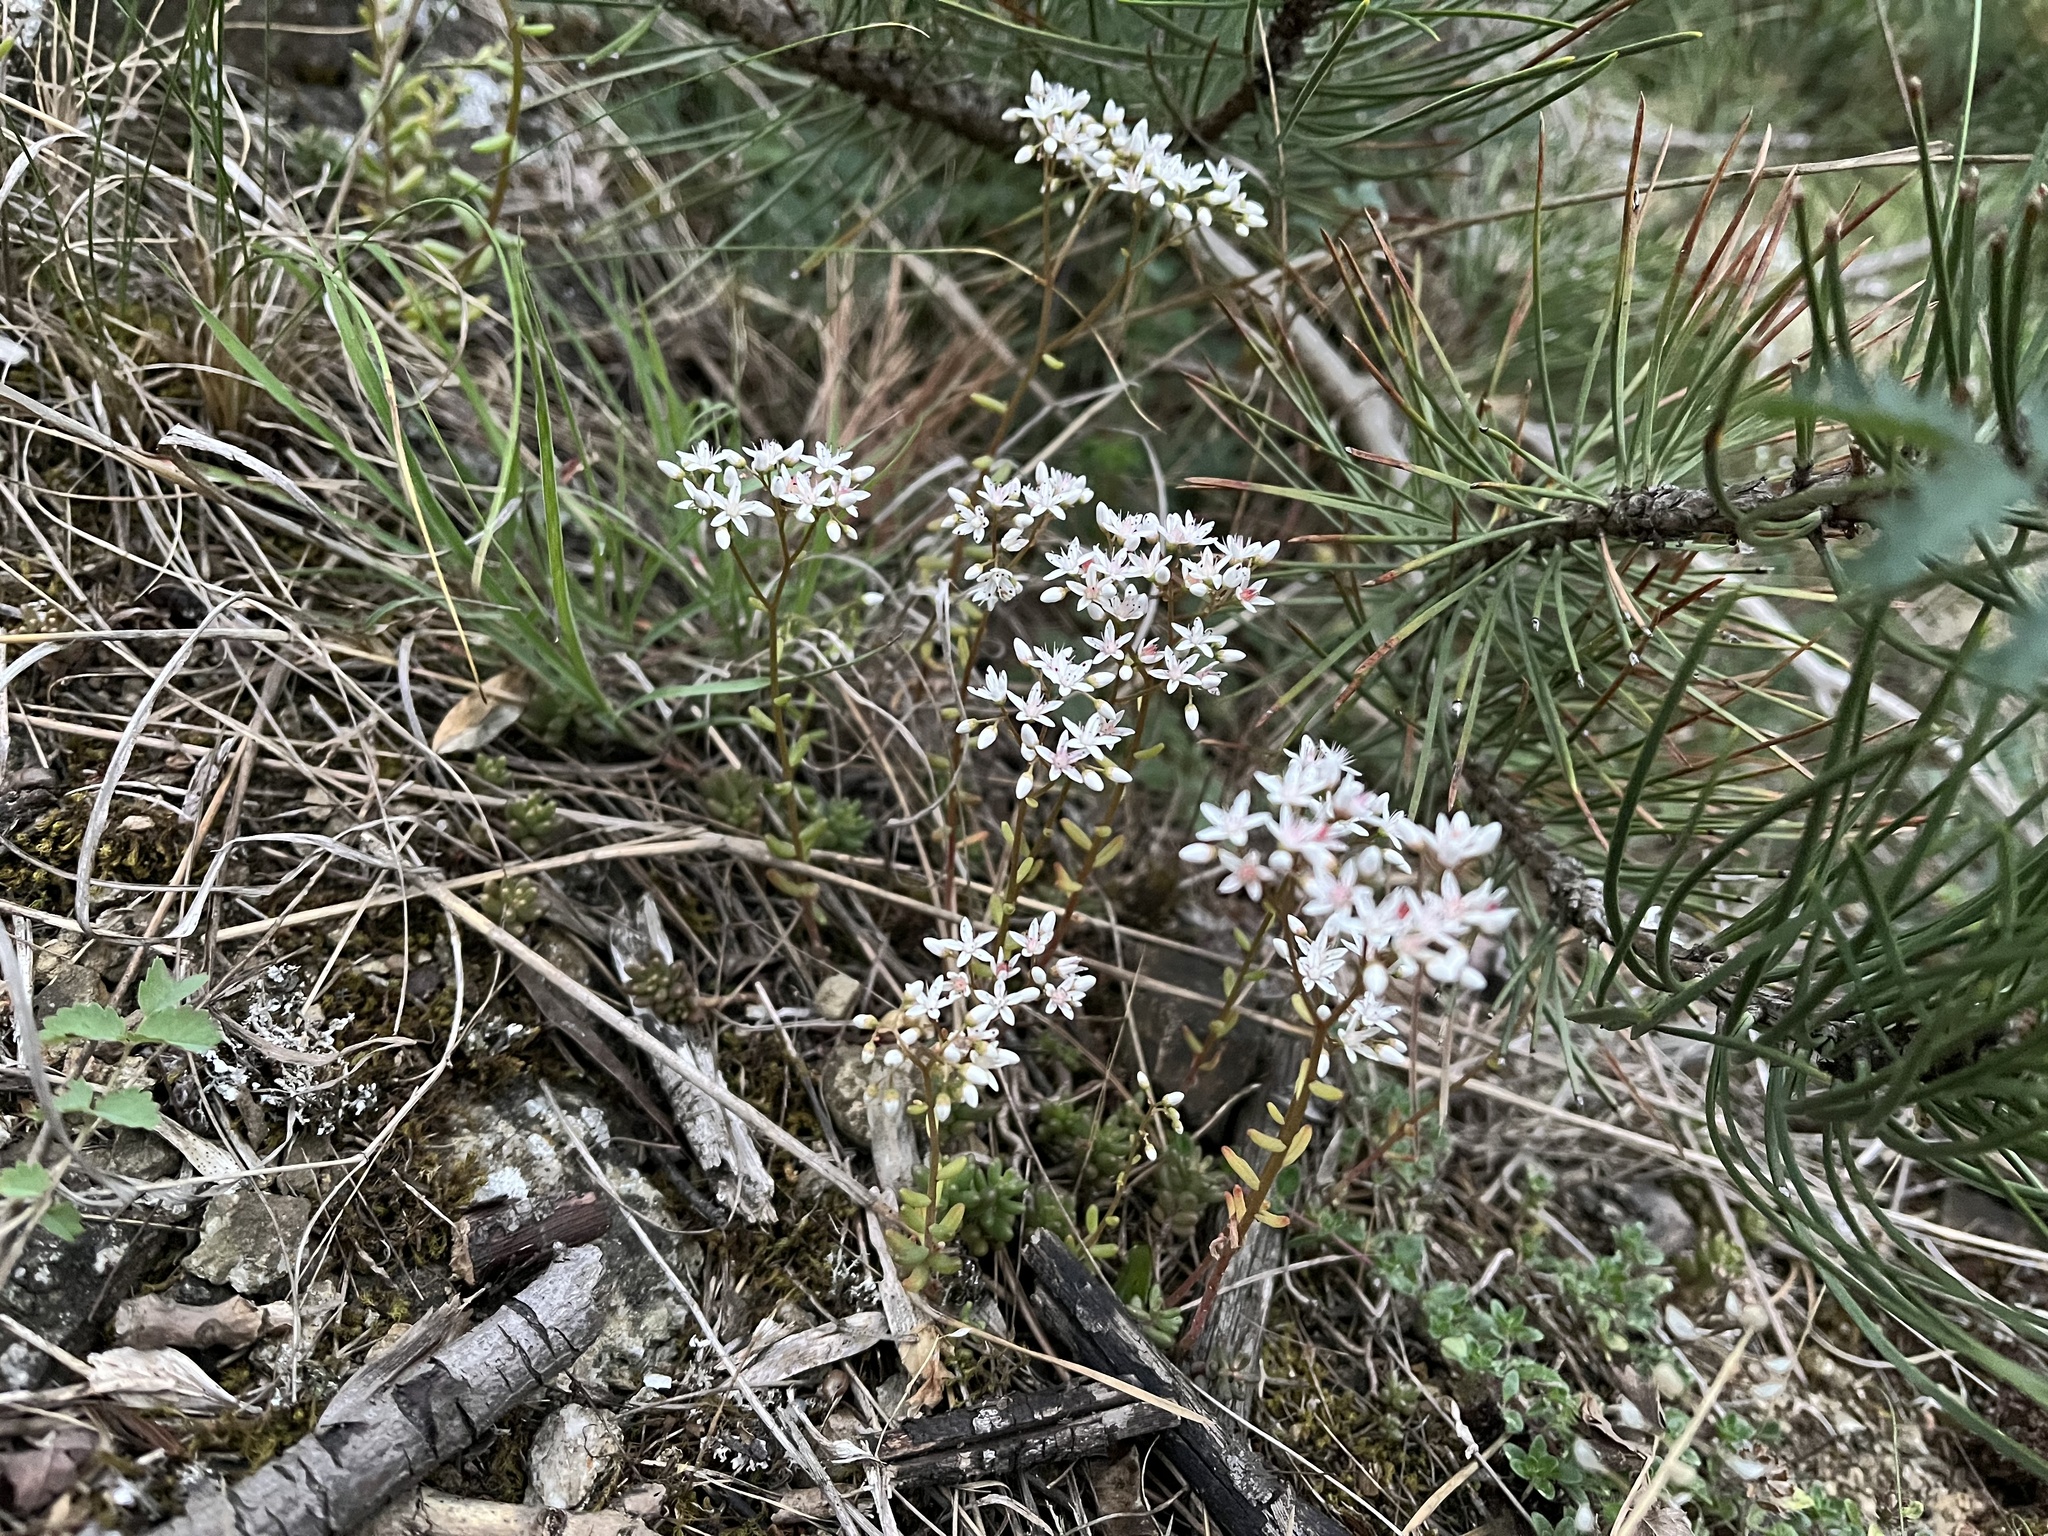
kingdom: Plantae
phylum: Tracheophyta
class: Magnoliopsida
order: Saxifragales
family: Crassulaceae
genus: Sedum
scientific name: Sedum album
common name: White stonecrop
